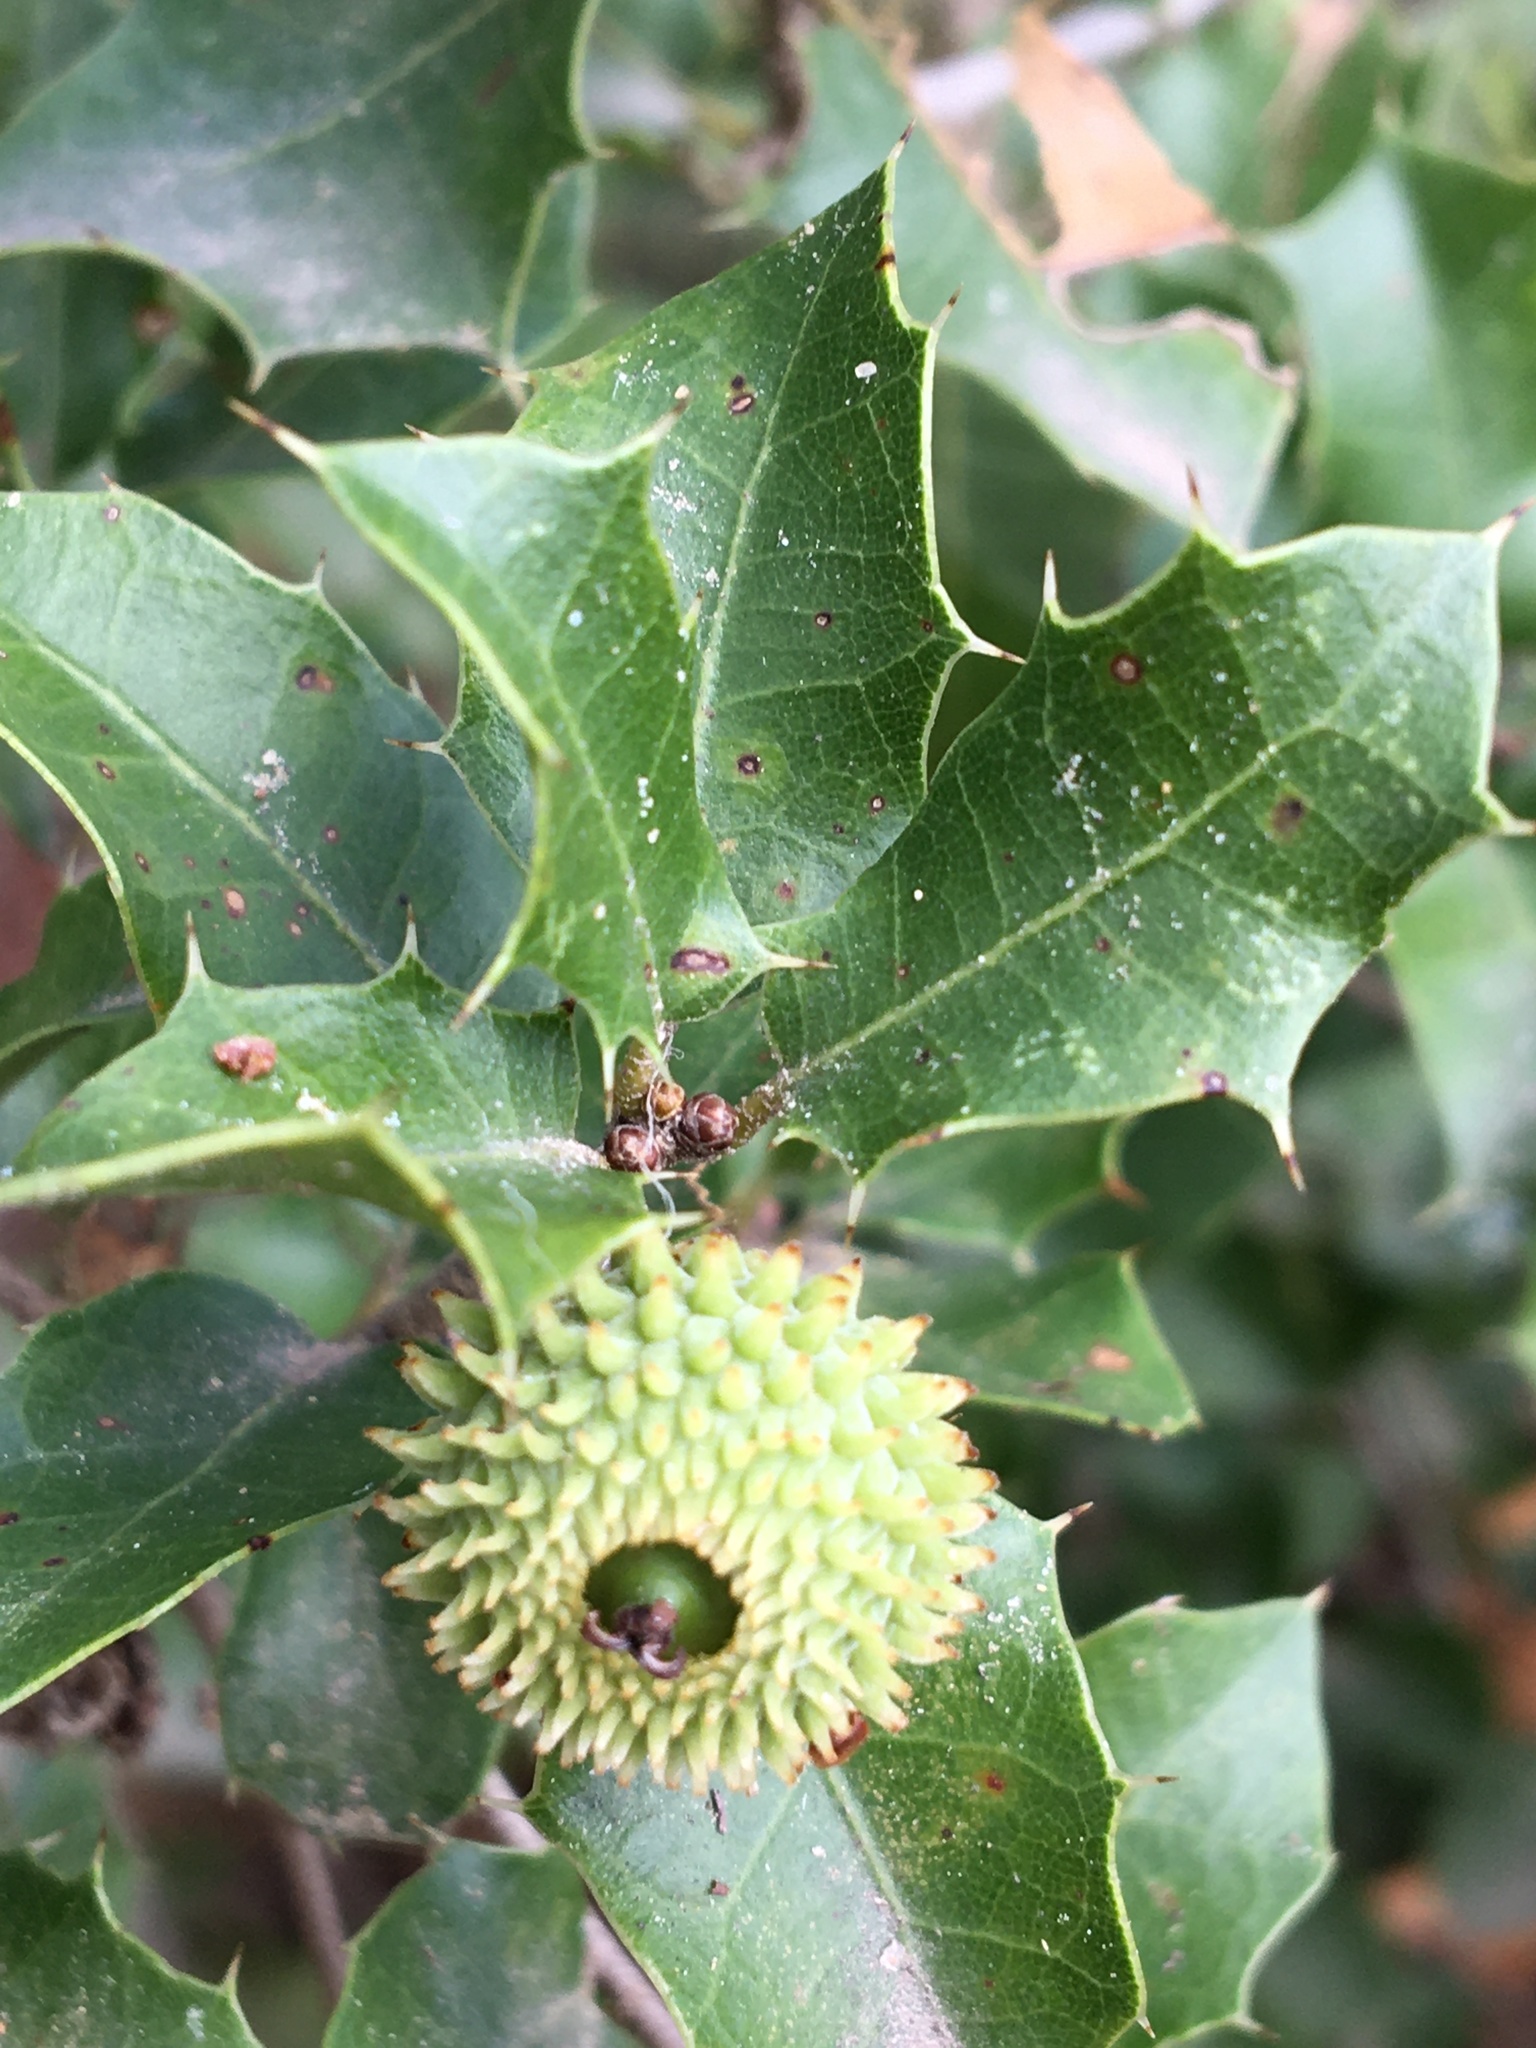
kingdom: Plantae
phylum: Tracheophyta
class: Magnoliopsida
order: Fagales
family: Fagaceae
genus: Quercus
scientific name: Quercus coccifera
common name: Kermes oak
